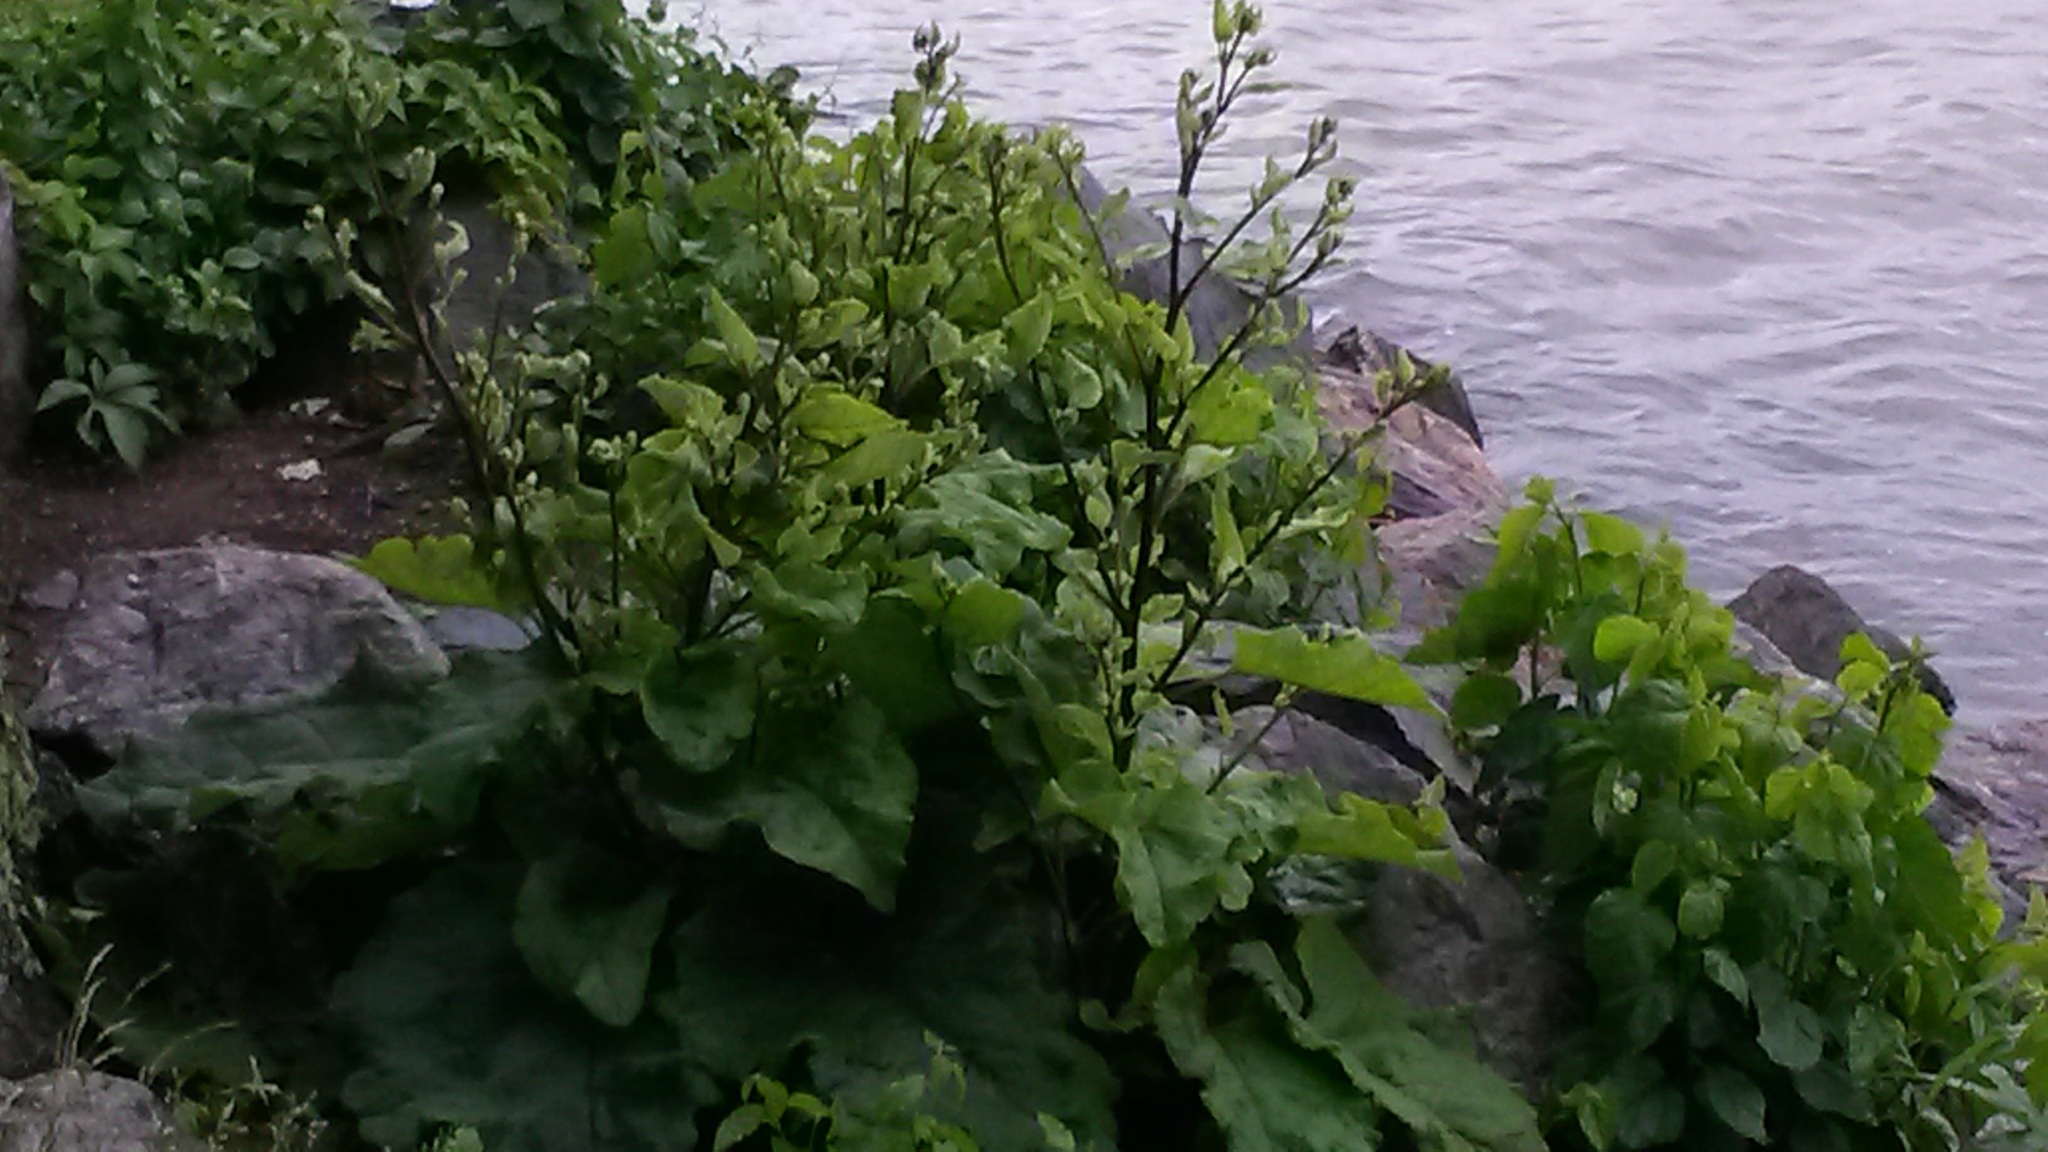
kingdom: Plantae
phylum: Tracheophyta
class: Magnoliopsida
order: Asterales
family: Asteraceae
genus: Arctium
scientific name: Arctium minus
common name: Lesser burdock
